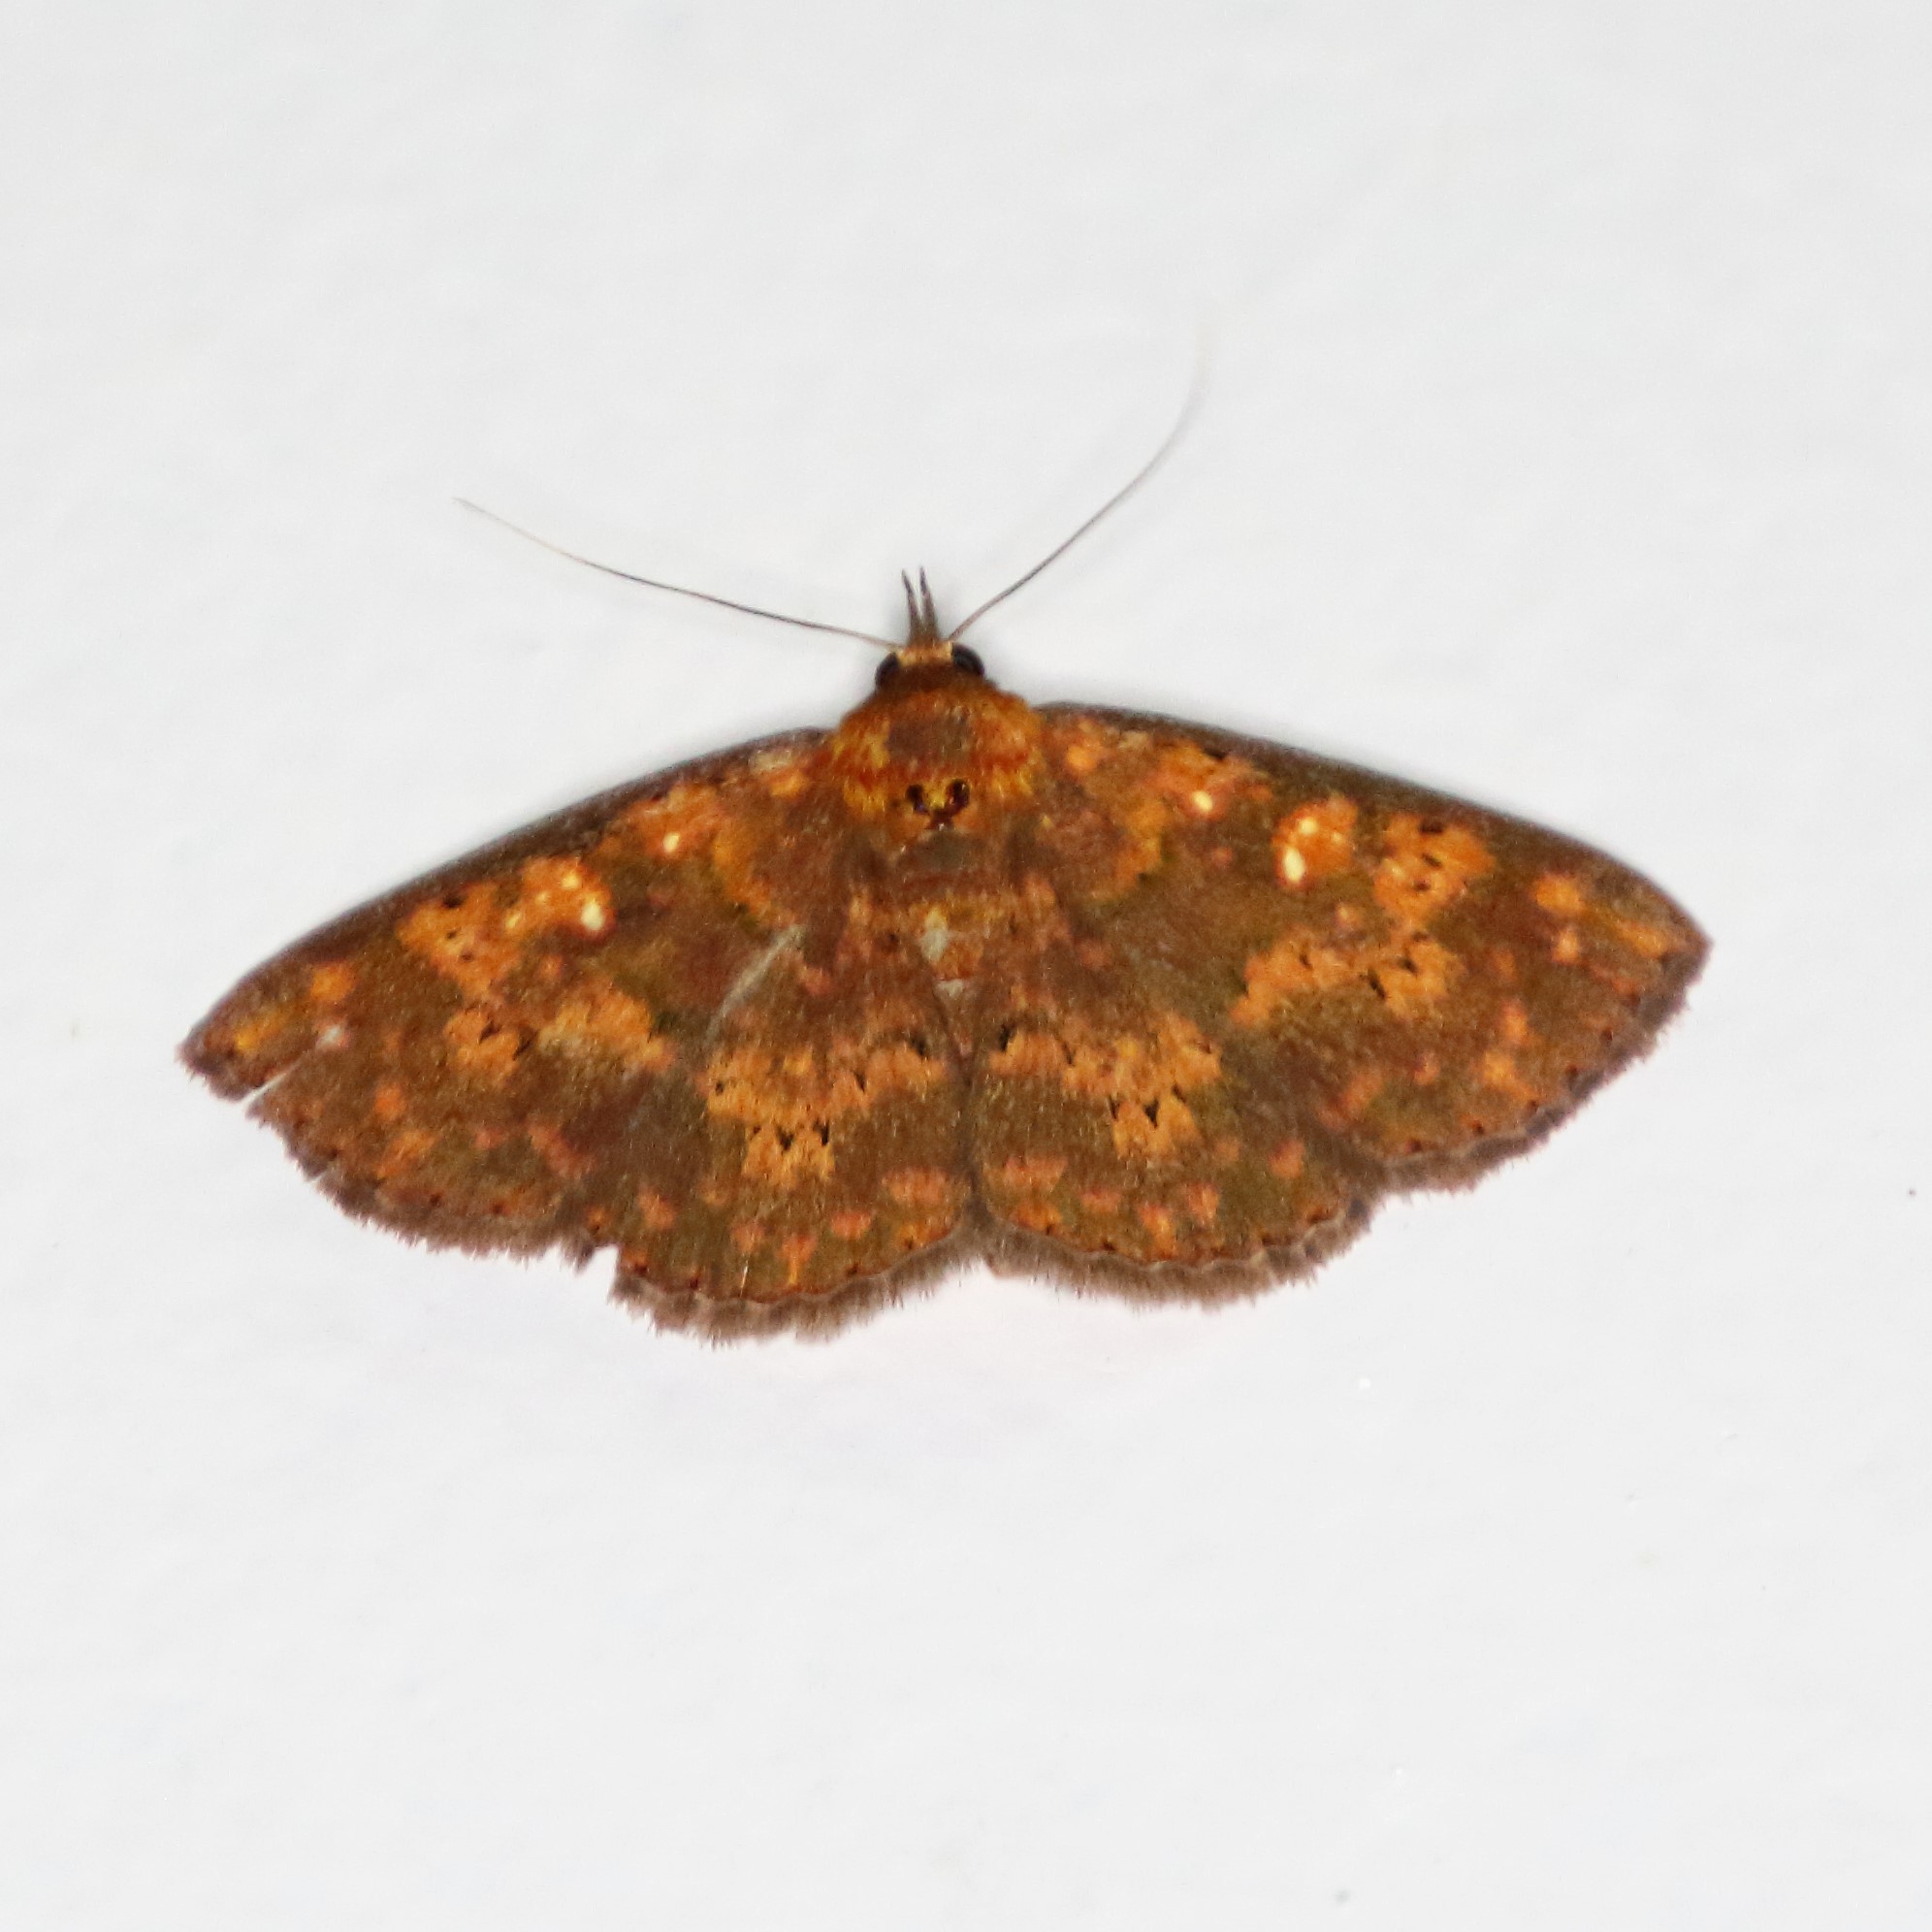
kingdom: Animalia
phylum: Arthropoda
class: Insecta
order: Lepidoptera
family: Erebidae
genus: Sarobides
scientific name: Sarobides inconclusa
